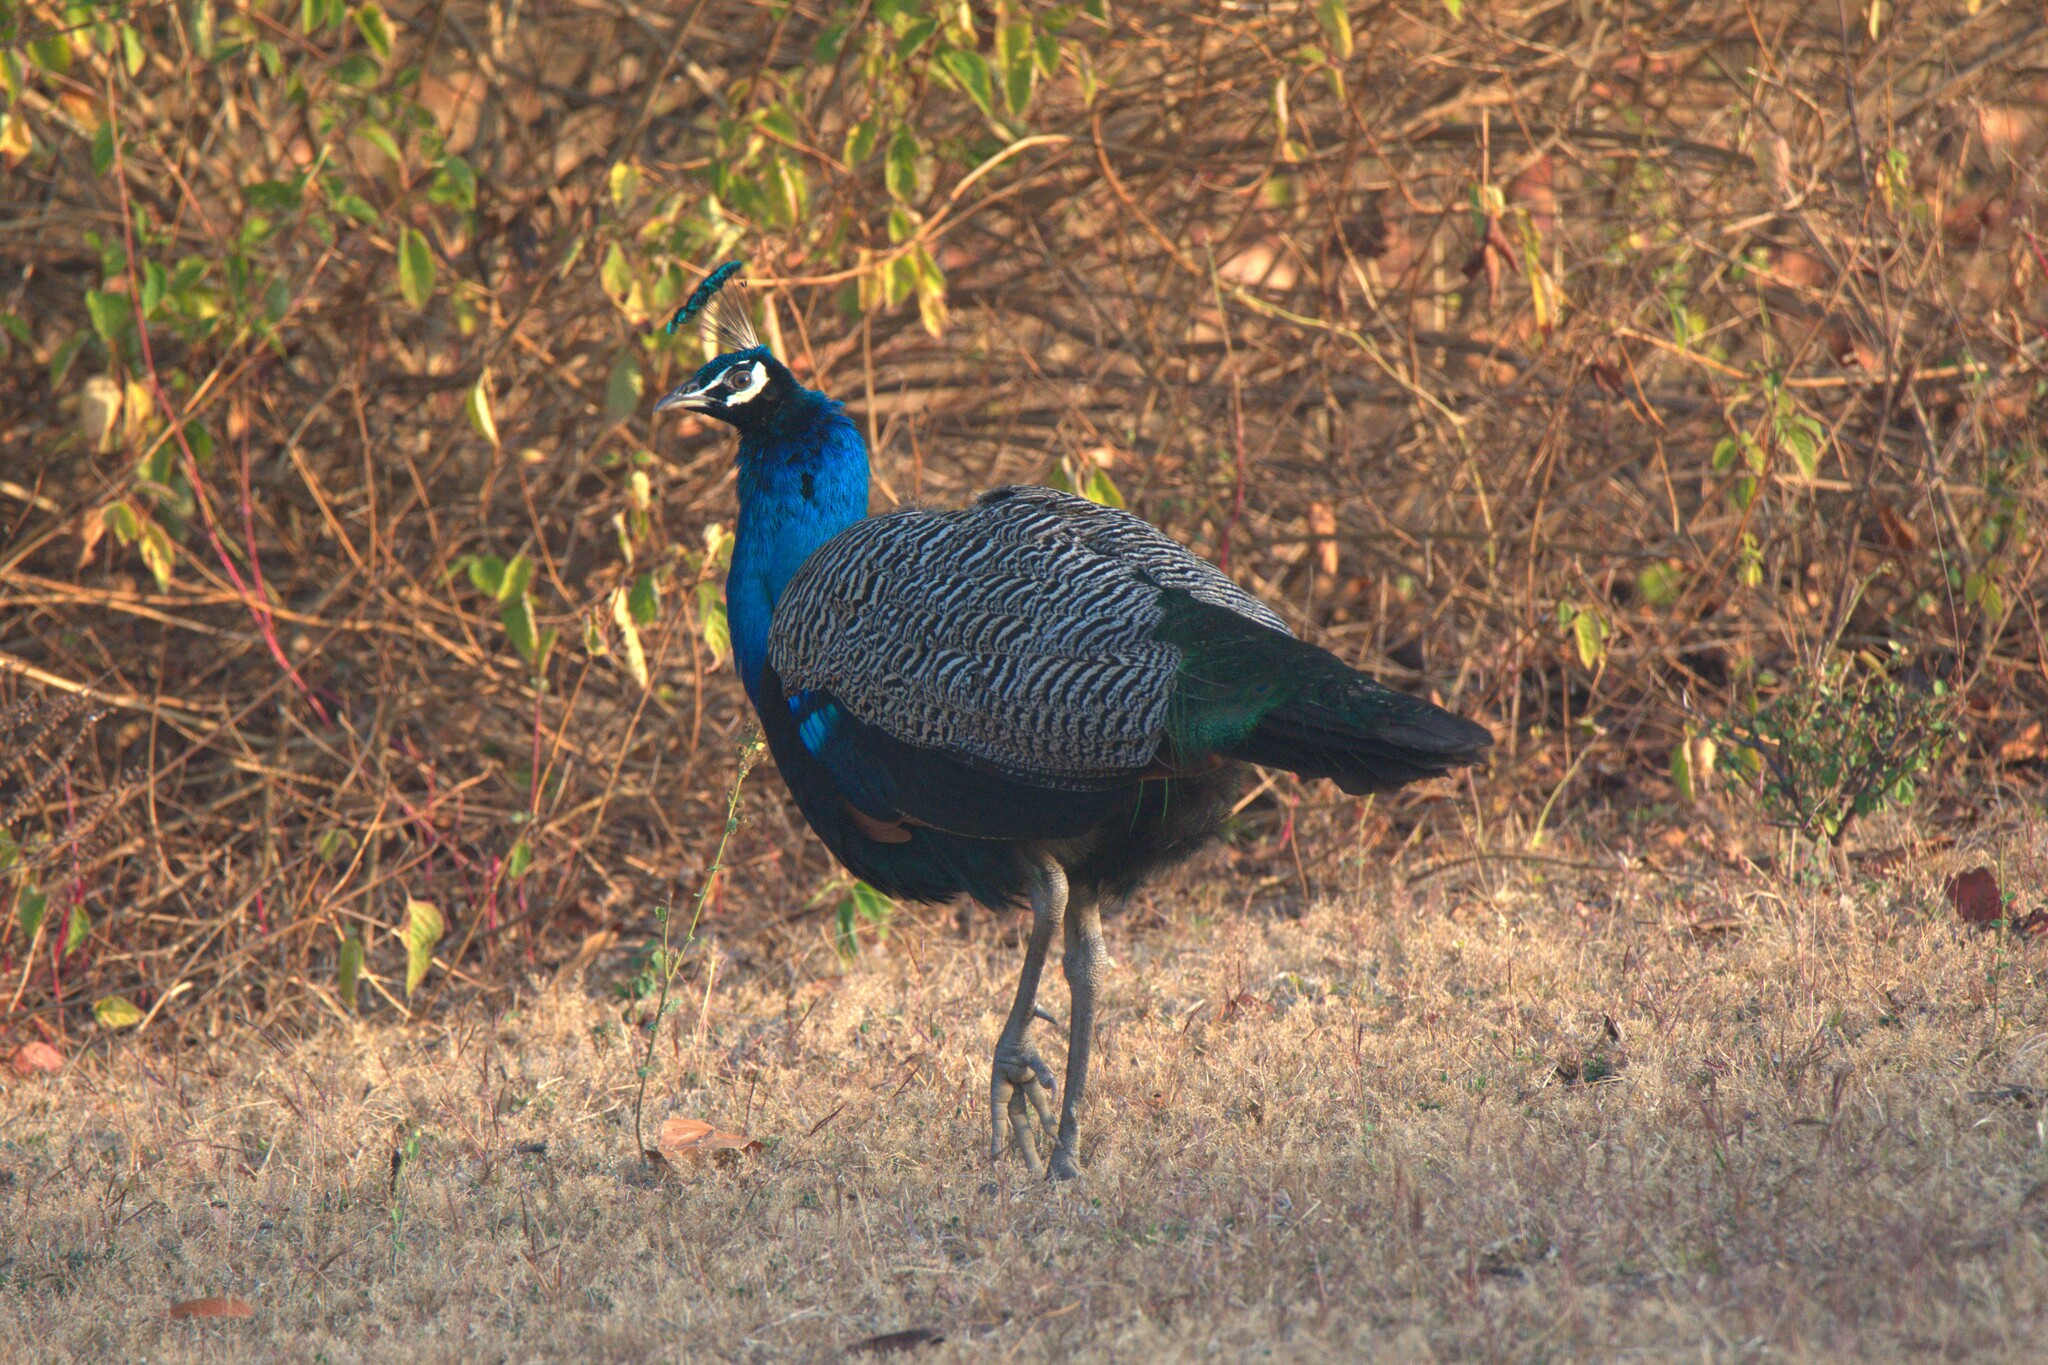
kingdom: Animalia
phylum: Chordata
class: Aves
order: Galliformes
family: Phasianidae
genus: Pavo
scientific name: Pavo cristatus
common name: Indian peafowl
